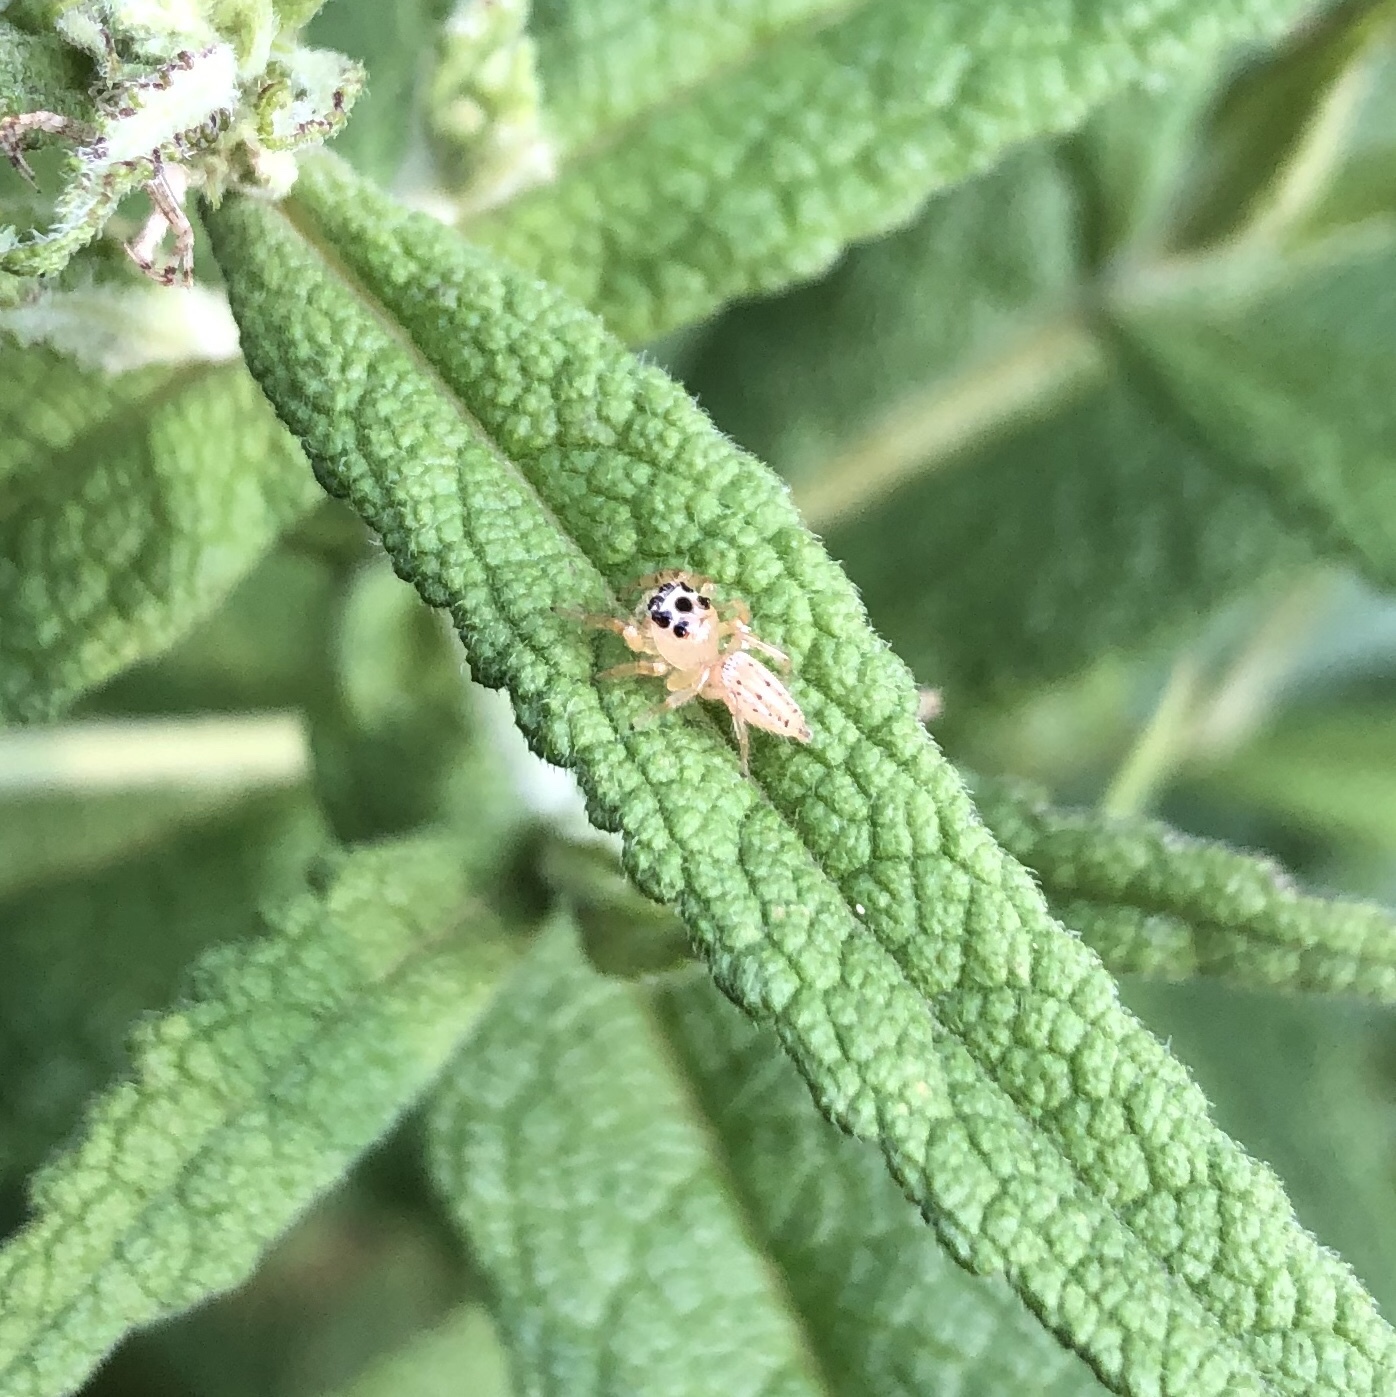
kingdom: Animalia
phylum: Arthropoda
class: Arachnida
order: Araneae
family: Salticidae
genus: Colonus
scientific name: Colonus sylvanus
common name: Jumping spiders
